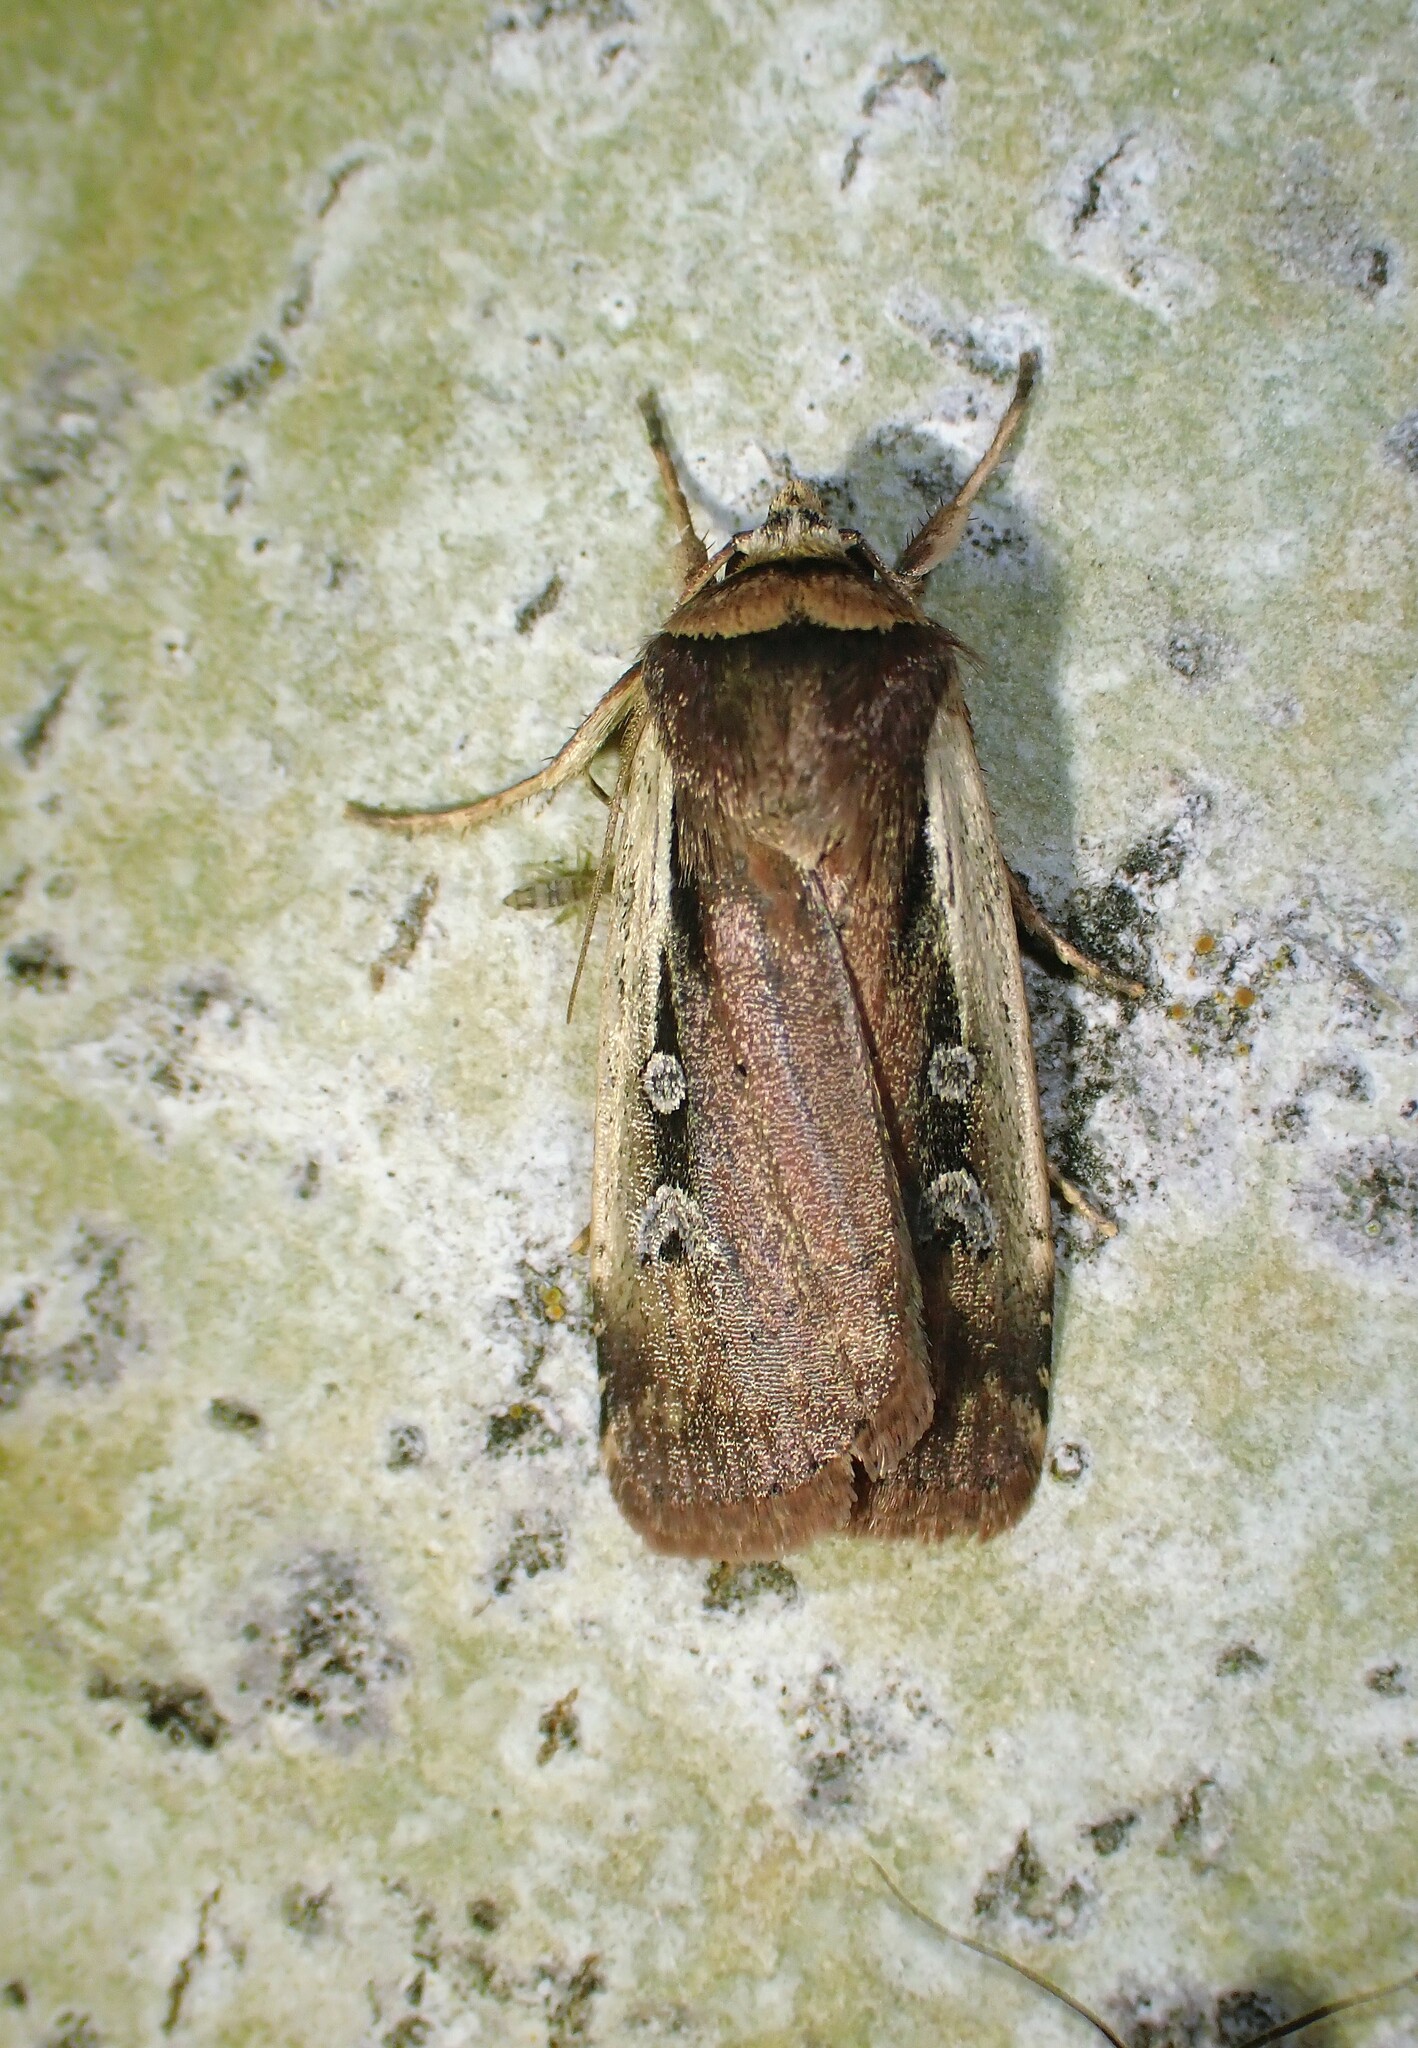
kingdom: Animalia
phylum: Arthropoda
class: Insecta
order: Lepidoptera
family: Noctuidae
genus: Ochropleura
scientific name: Ochropleura implecta
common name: Flame-shouldered dart
